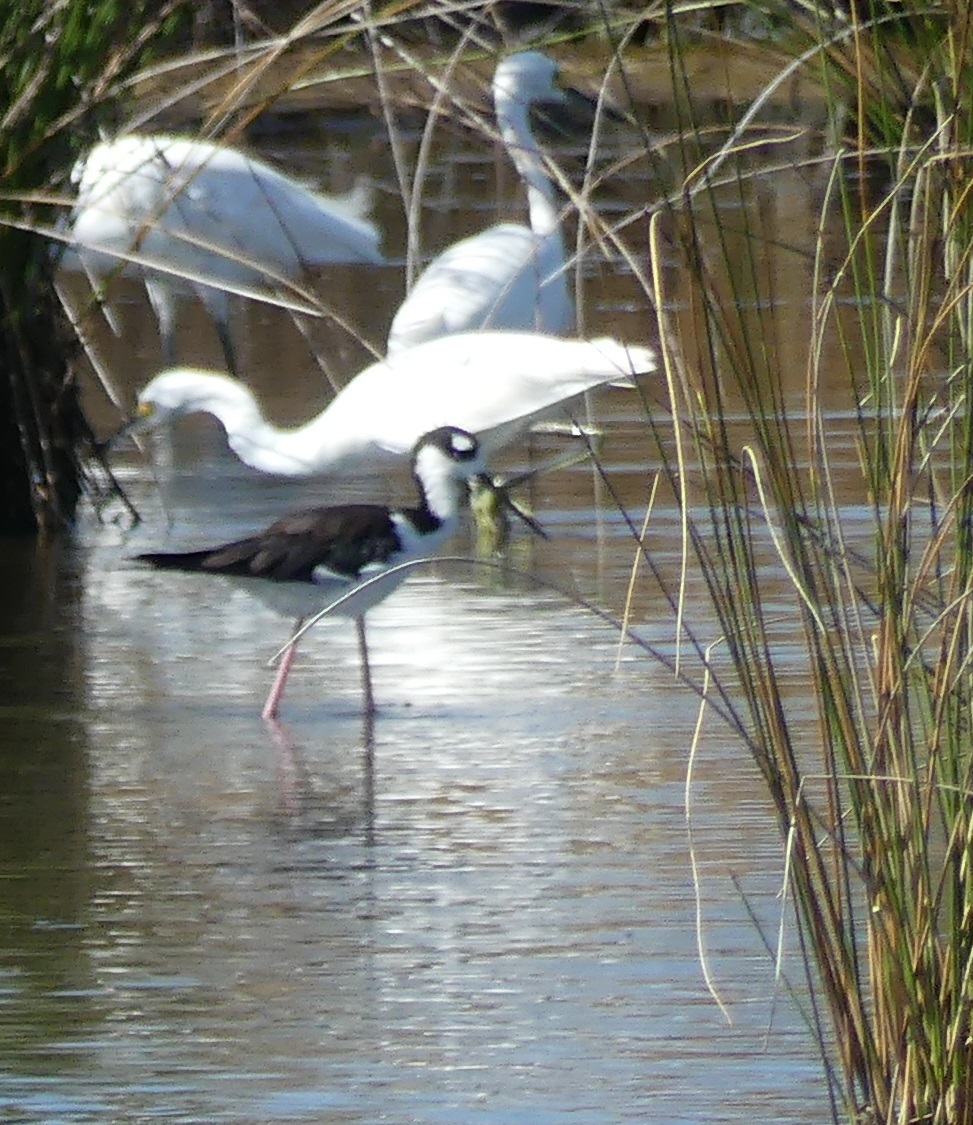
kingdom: Animalia
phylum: Chordata
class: Aves
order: Charadriiformes
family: Recurvirostridae
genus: Himantopus
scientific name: Himantopus mexicanus
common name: Black-necked stilt
